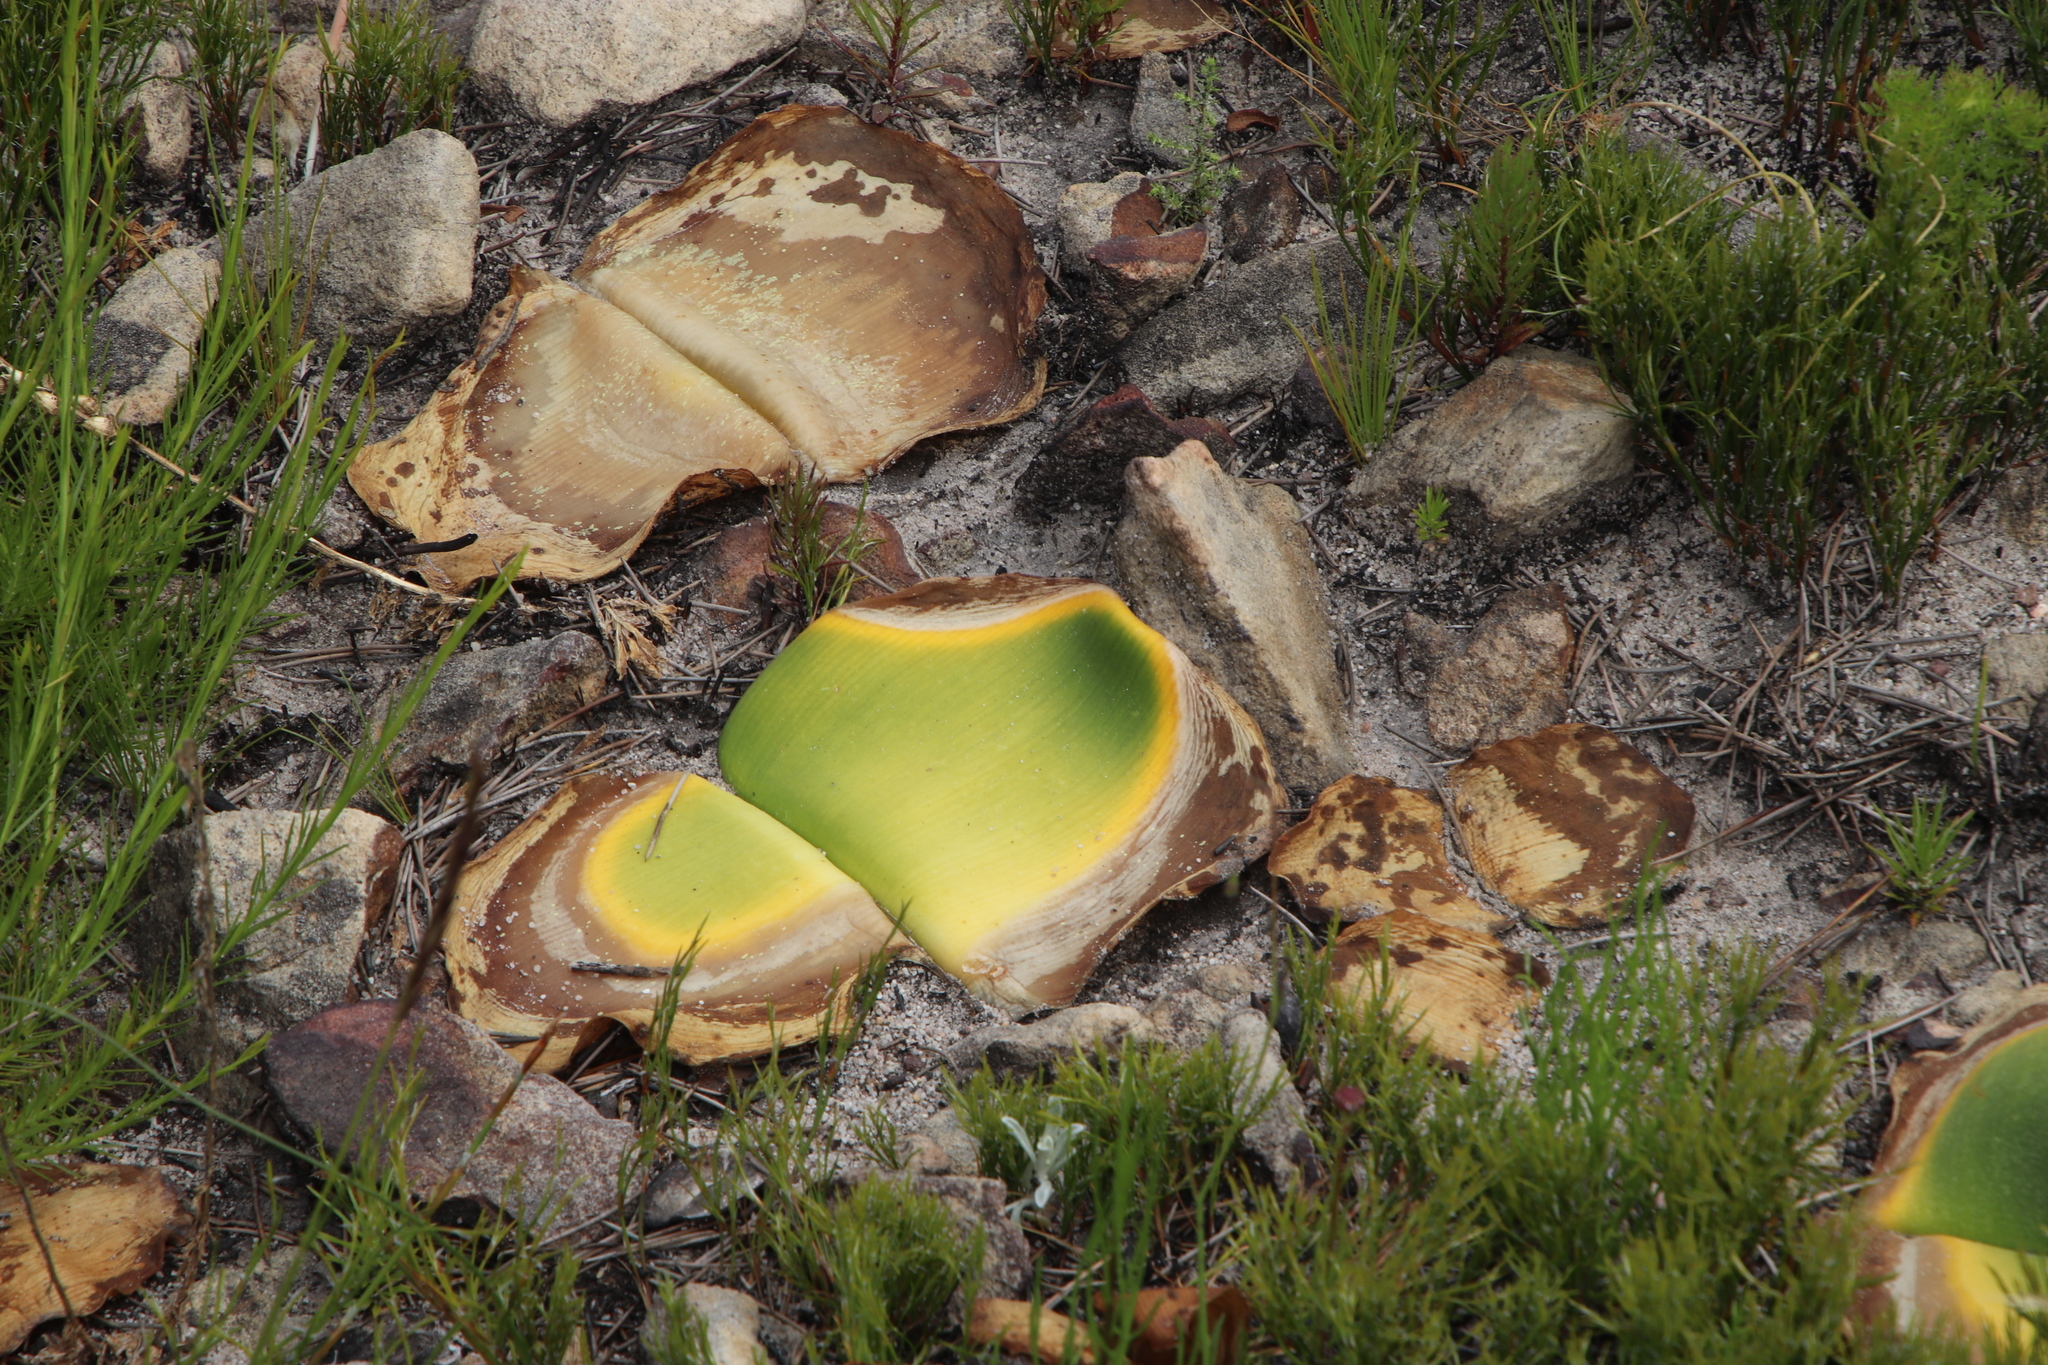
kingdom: Plantae
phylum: Tracheophyta
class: Liliopsida
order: Asparagales
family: Amaryllidaceae
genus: Haemanthus
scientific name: Haemanthus sanguineus
